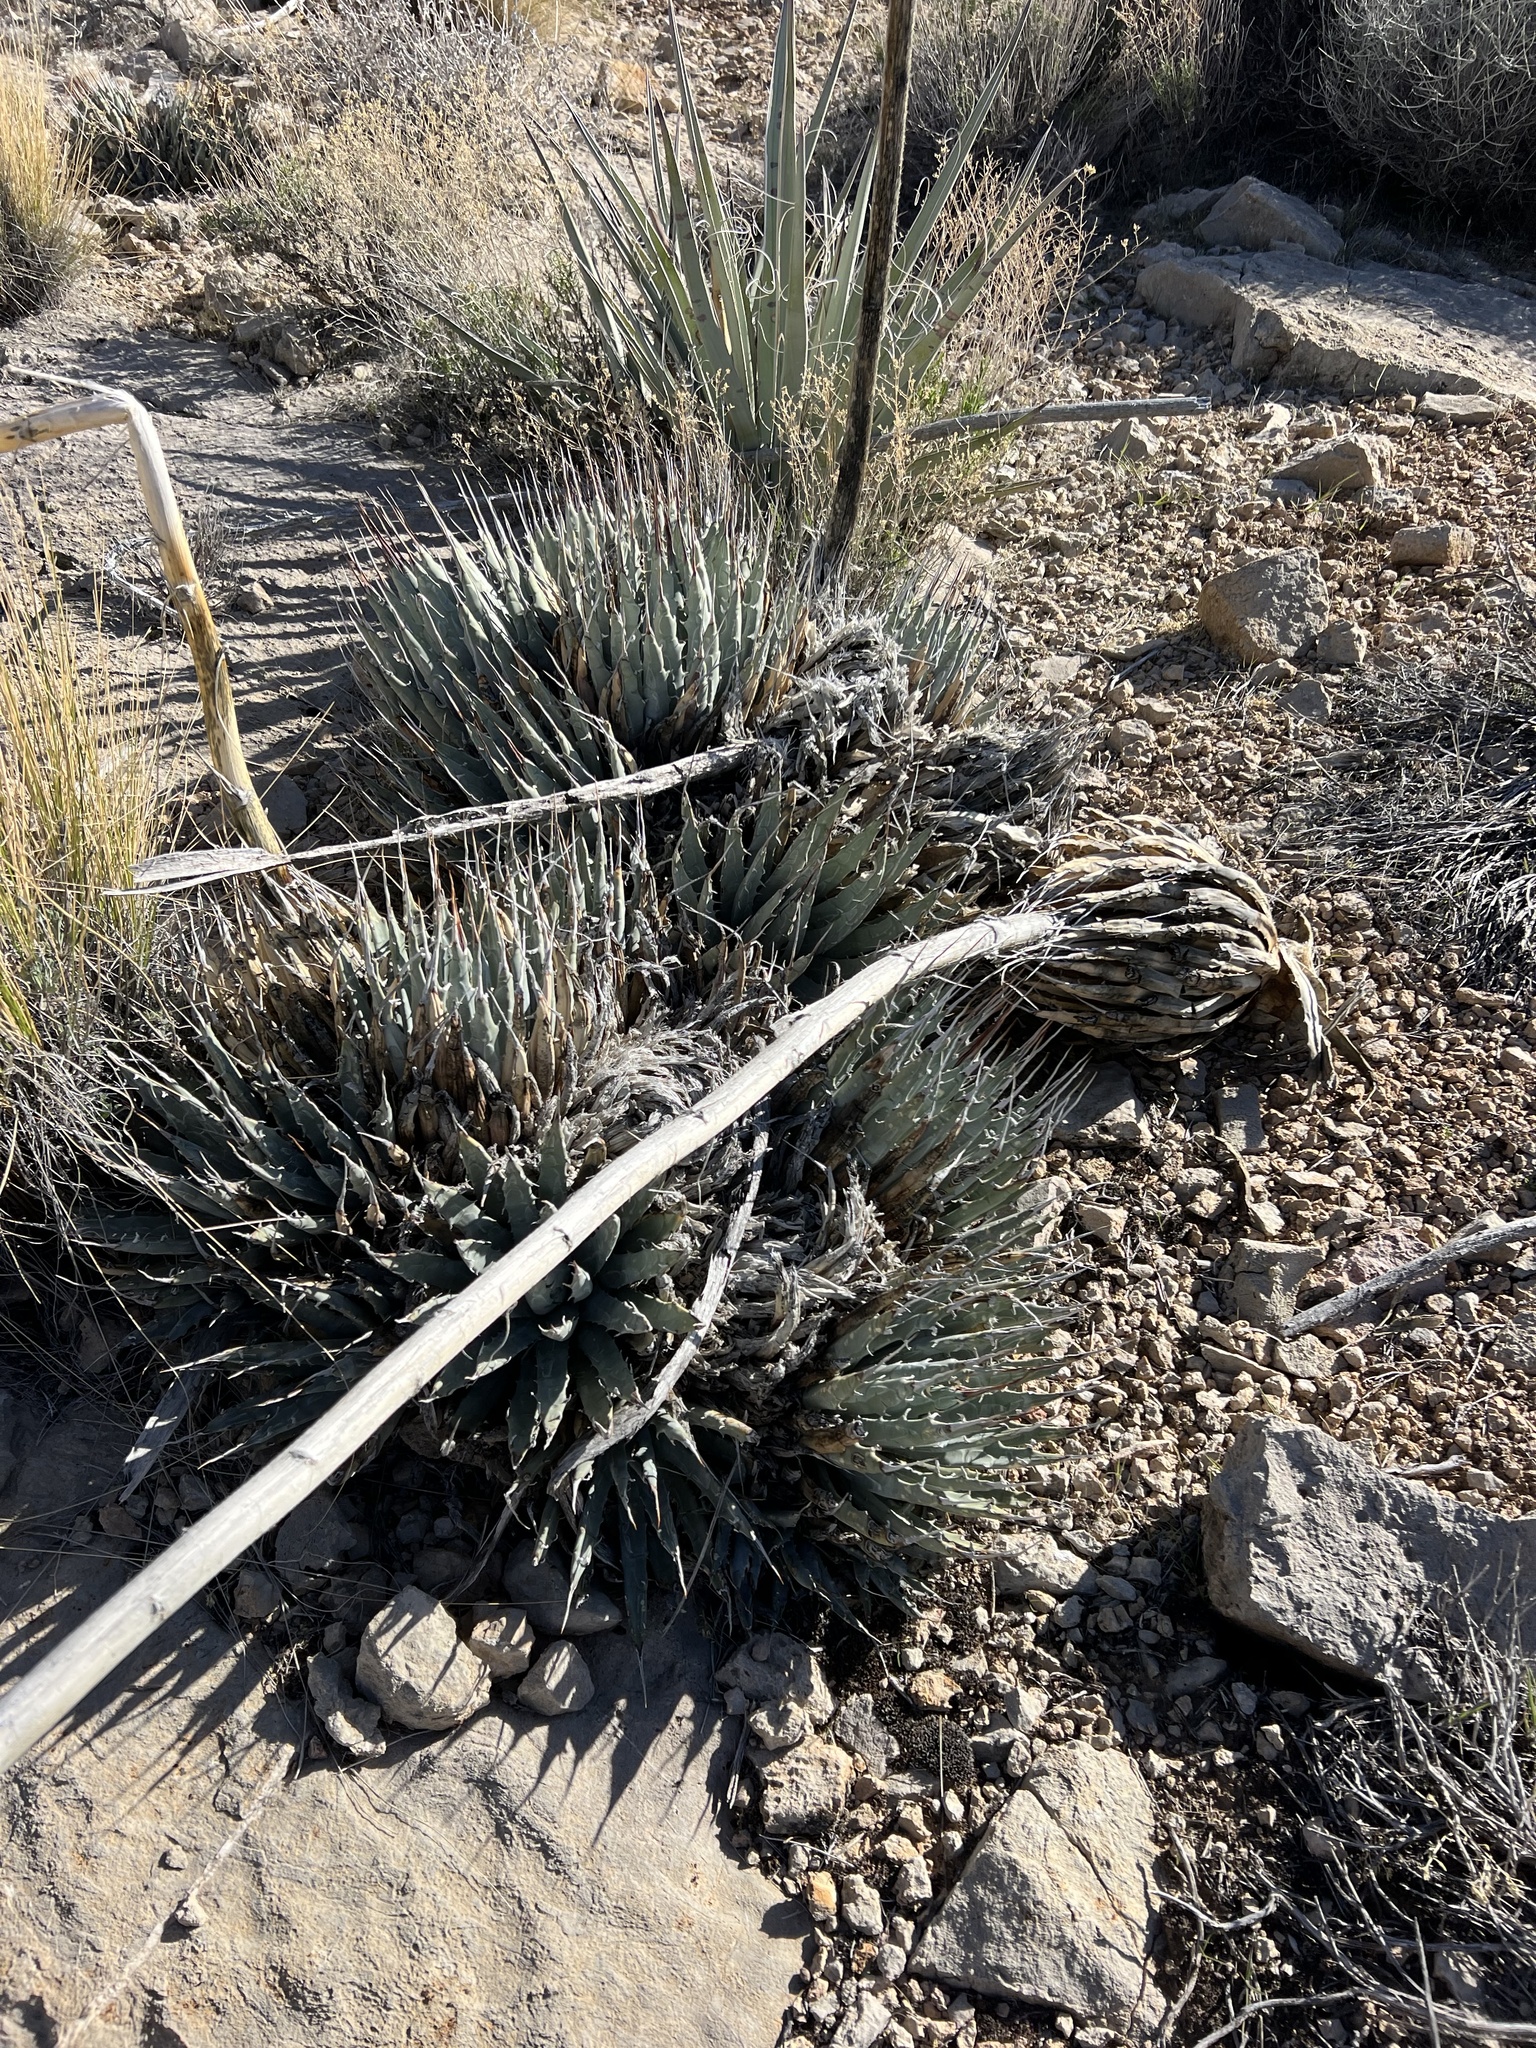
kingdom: Plantae
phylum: Tracheophyta
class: Liliopsida
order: Asparagales
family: Asparagaceae
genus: Agave
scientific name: Agave utahensis
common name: Utah agave
